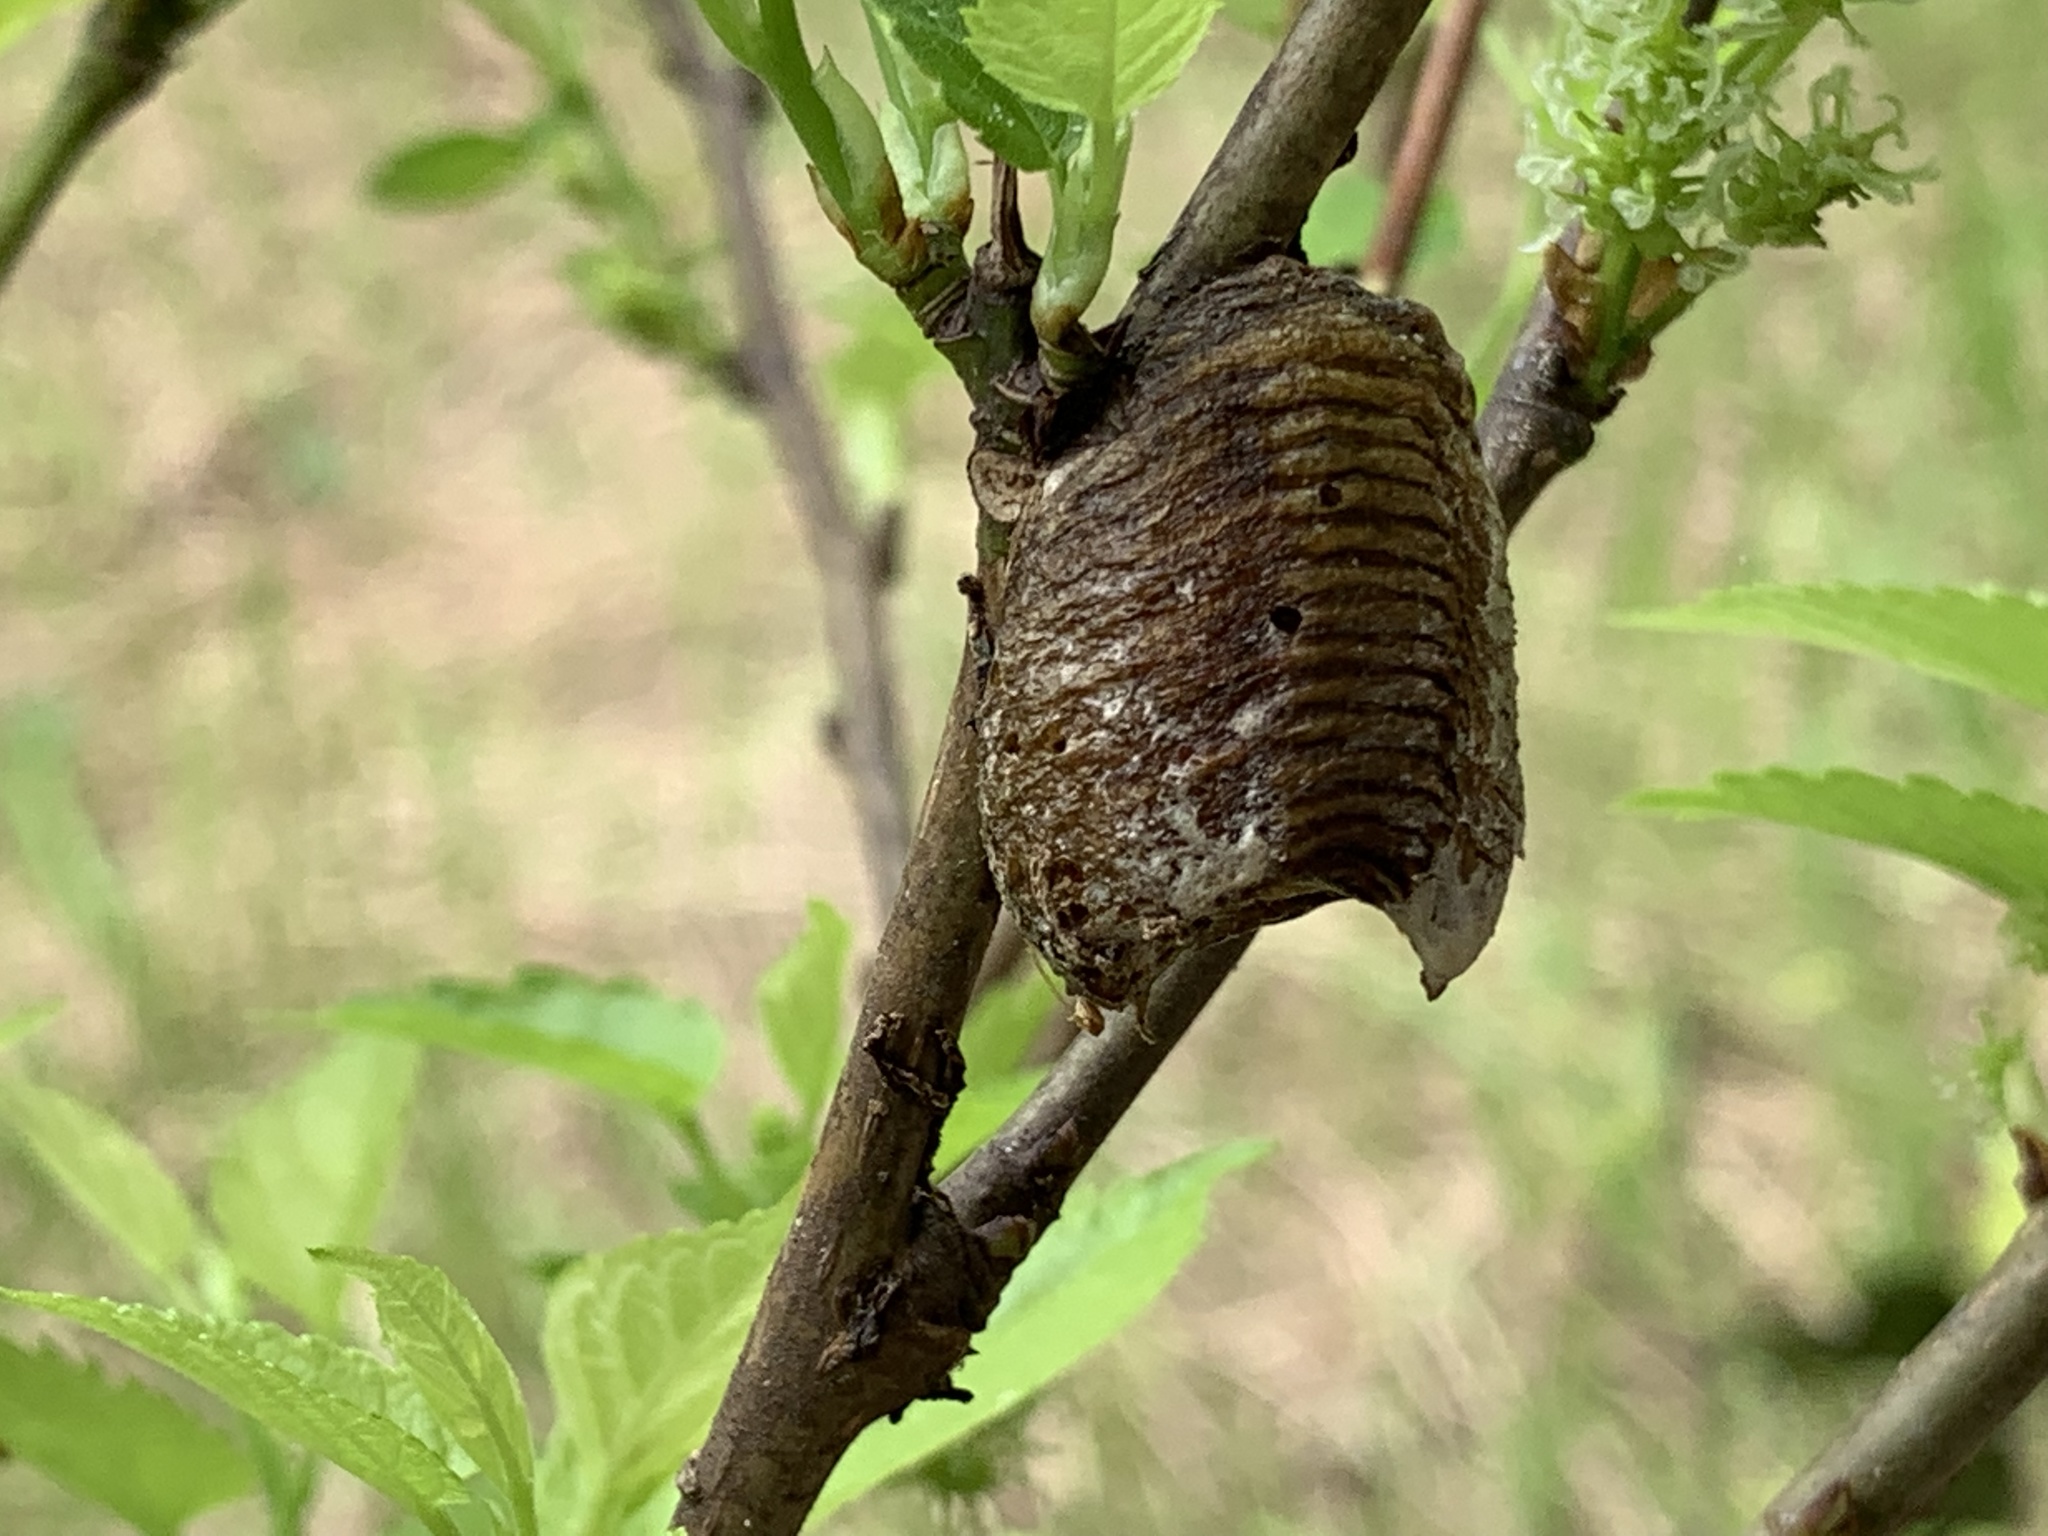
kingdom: Animalia
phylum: Arthropoda
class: Insecta
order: Mantodea
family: Mantidae
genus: Hierodula
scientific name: Hierodula patellifera
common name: Asian mantis
